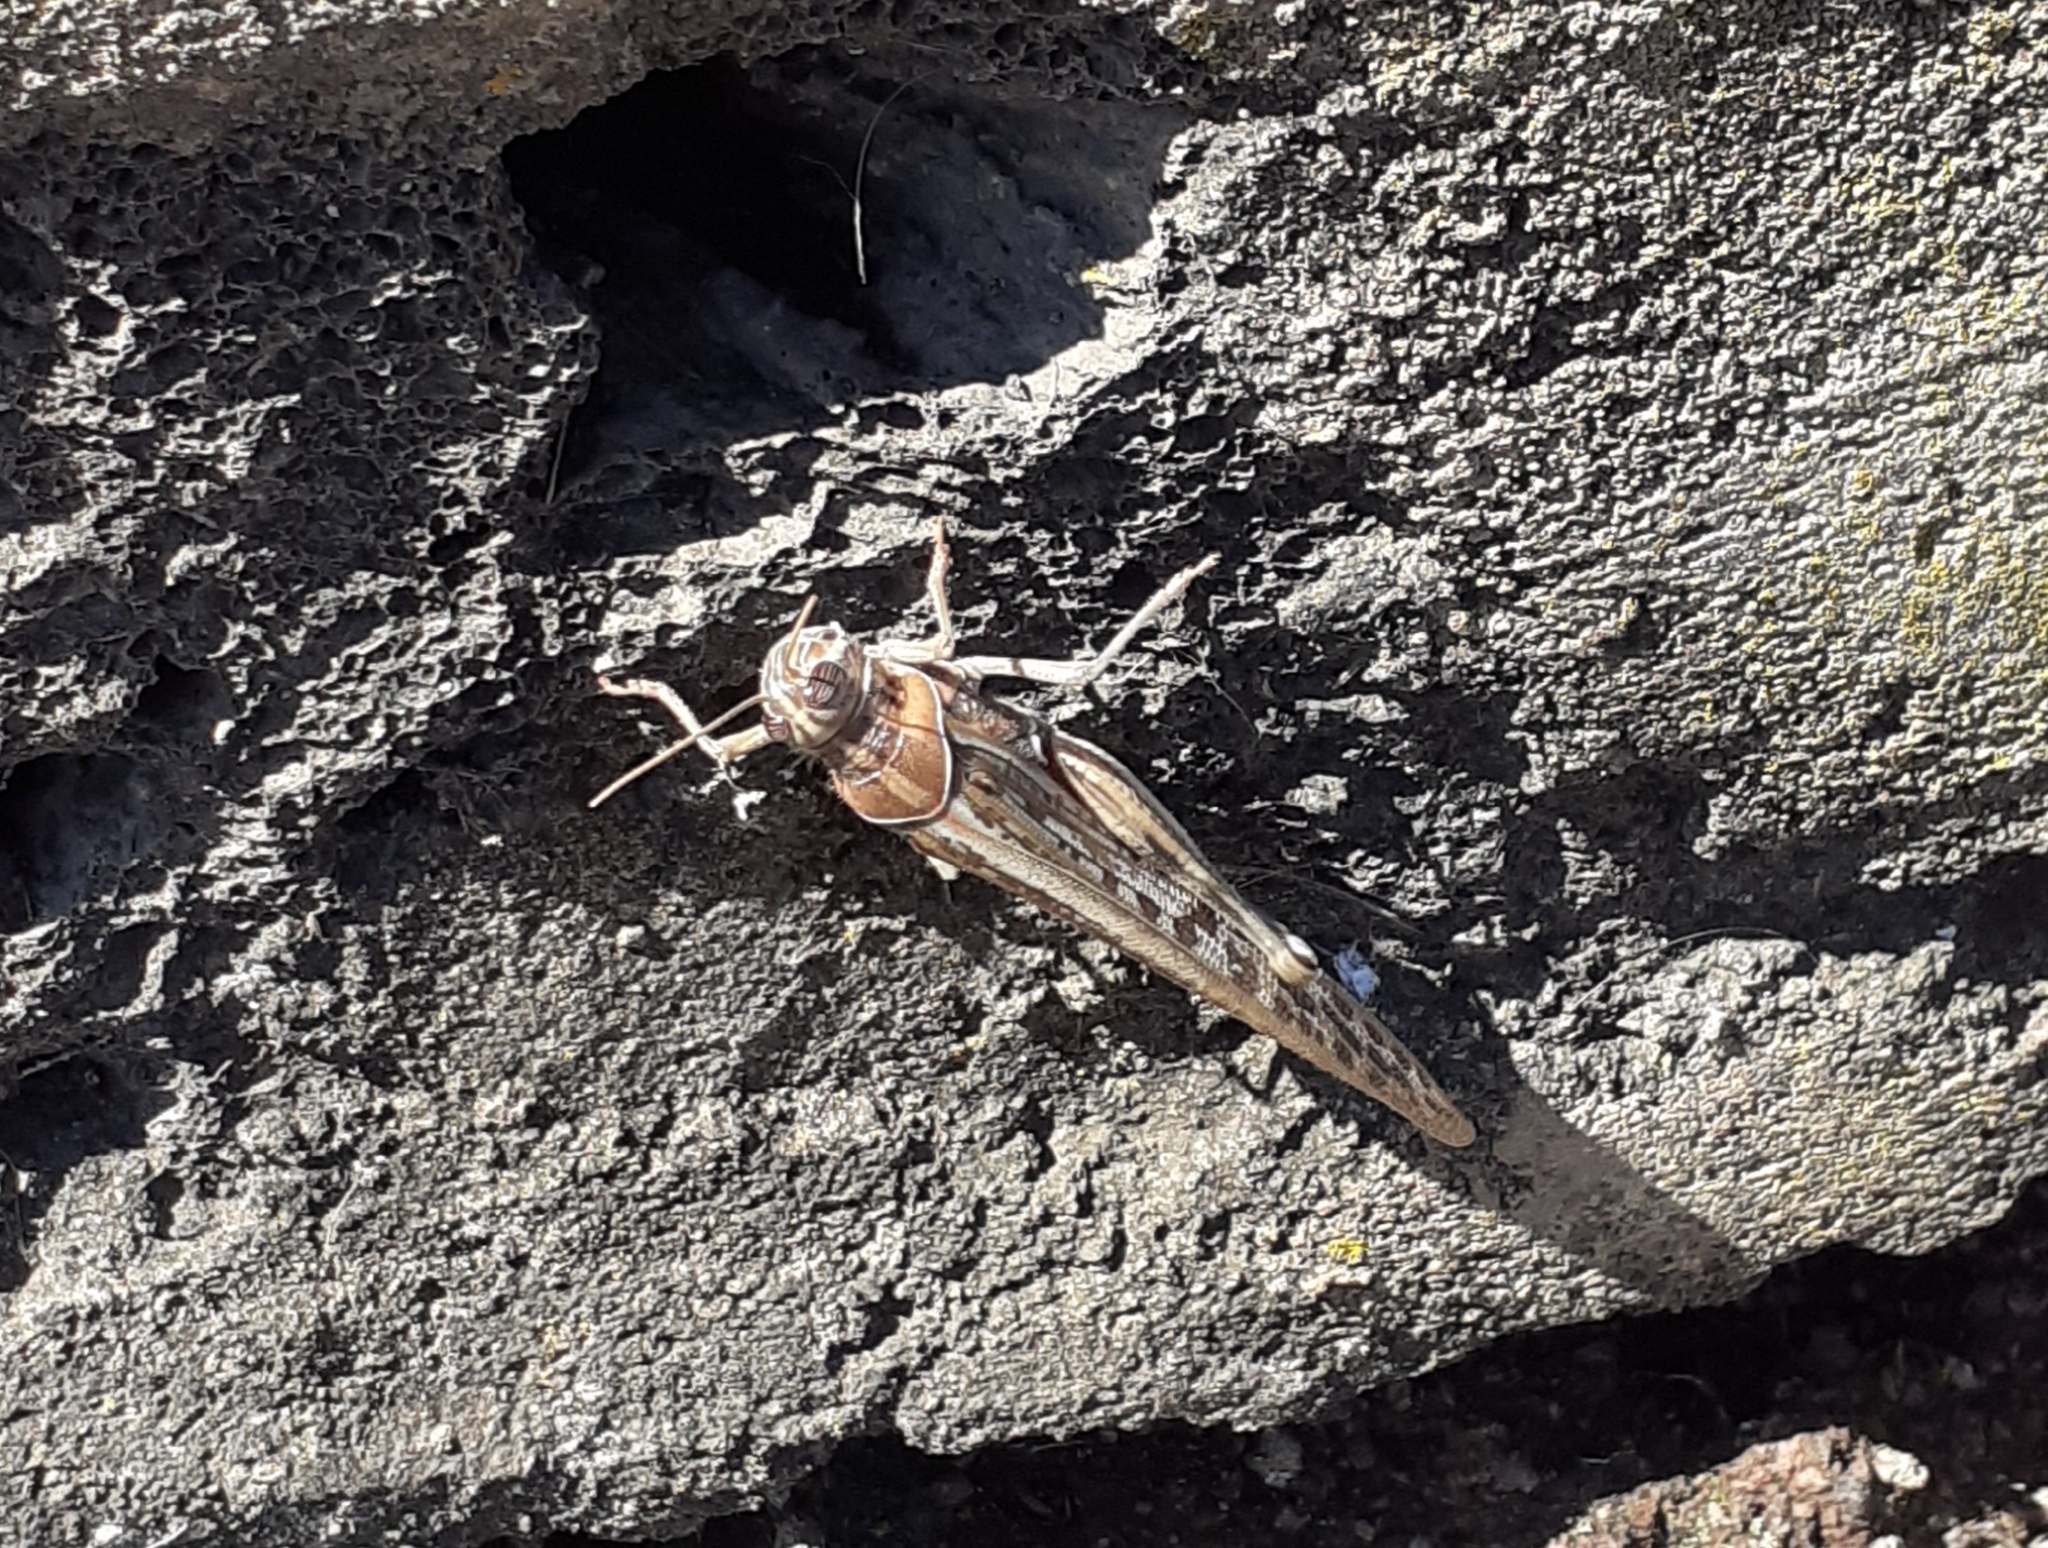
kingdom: Animalia
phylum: Arthropoda
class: Insecta
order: Orthoptera
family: Acrididae
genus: Schistocerca
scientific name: Schistocerca gregaria
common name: Desert locust
